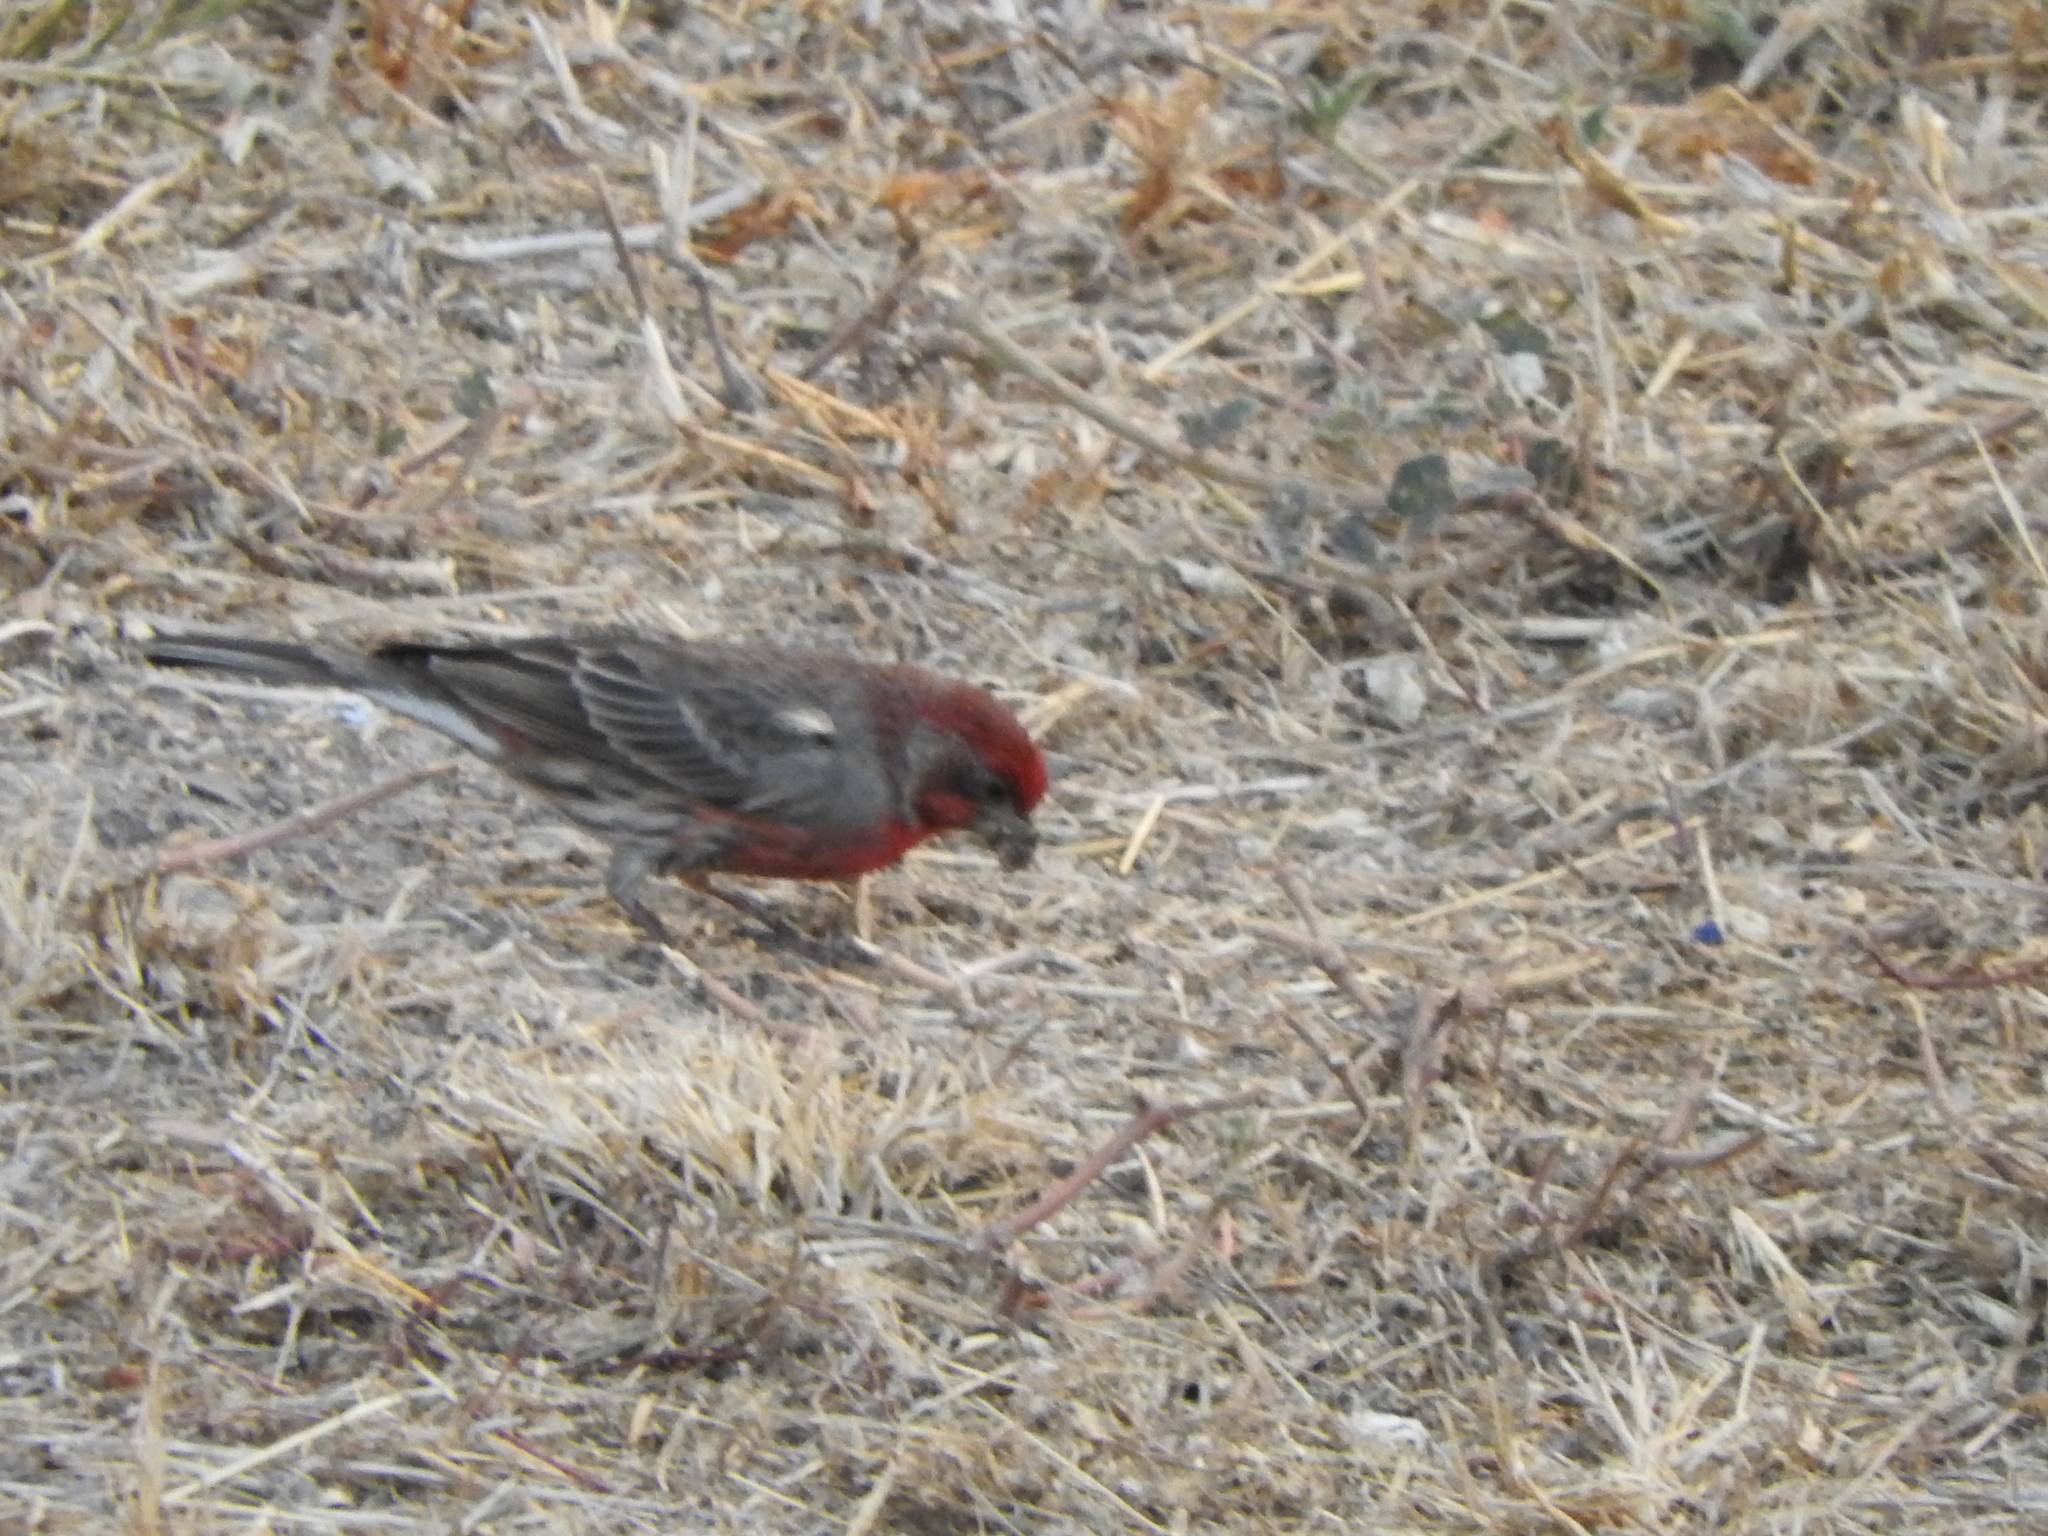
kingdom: Animalia
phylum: Chordata
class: Aves
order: Passeriformes
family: Fringillidae
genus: Haemorhous
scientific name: Haemorhous mexicanus
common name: House finch
